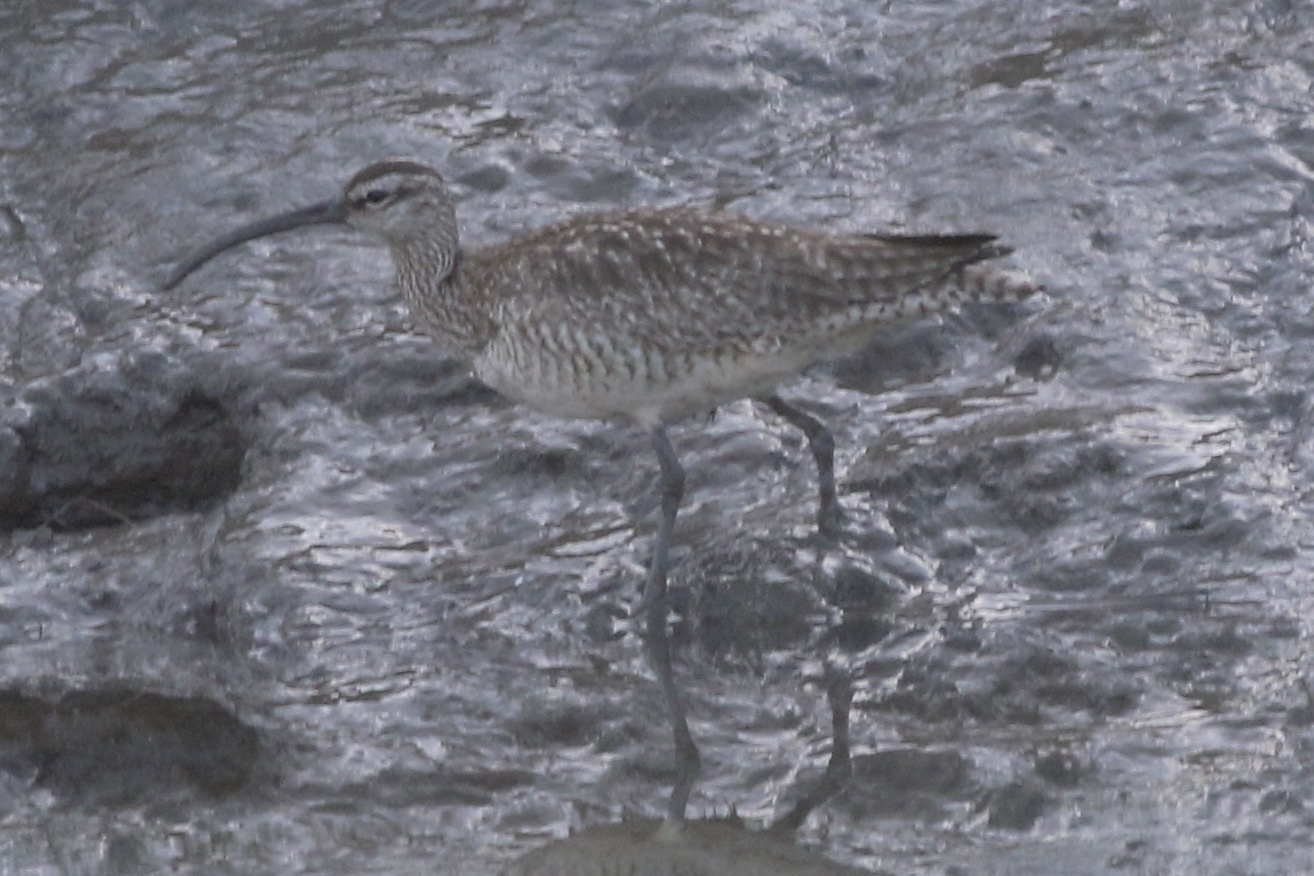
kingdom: Animalia
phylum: Chordata
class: Aves
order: Charadriiformes
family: Scolopacidae
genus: Numenius
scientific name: Numenius phaeopus
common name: Whimbrel
